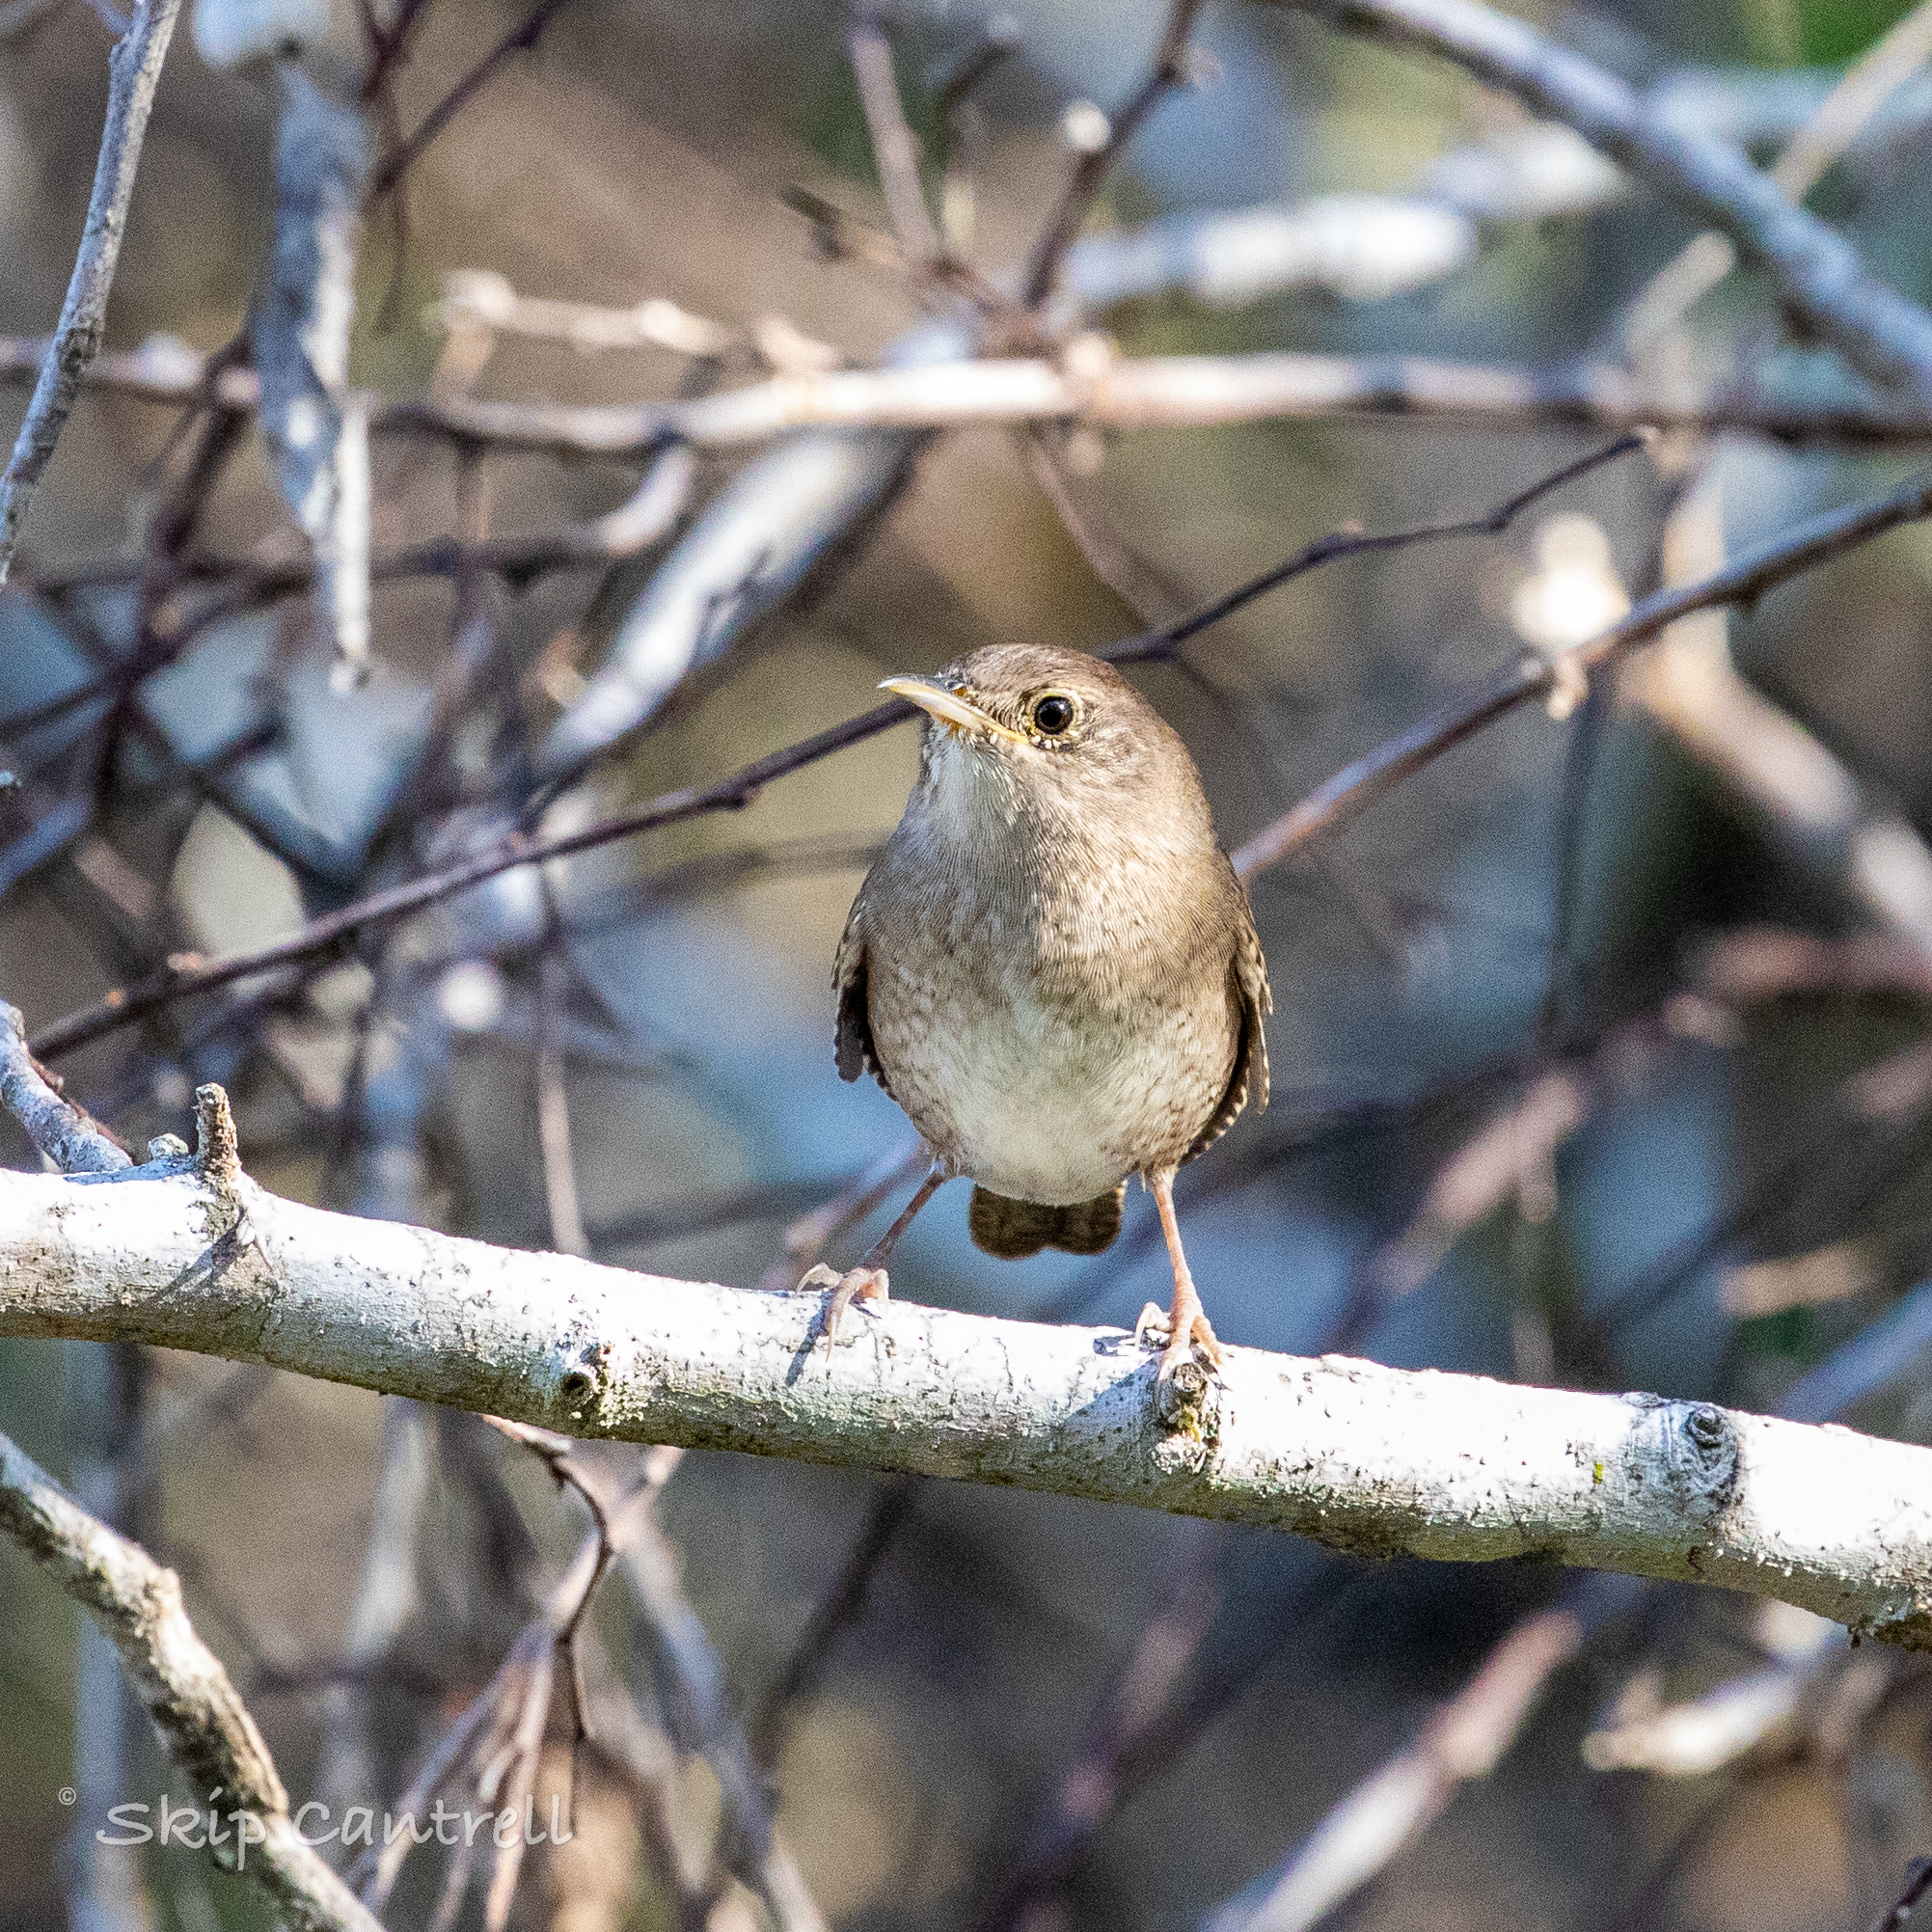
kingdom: Animalia
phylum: Chordata
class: Aves
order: Passeriformes
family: Troglodytidae
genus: Troglodytes
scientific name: Troglodytes aedon
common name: House wren
